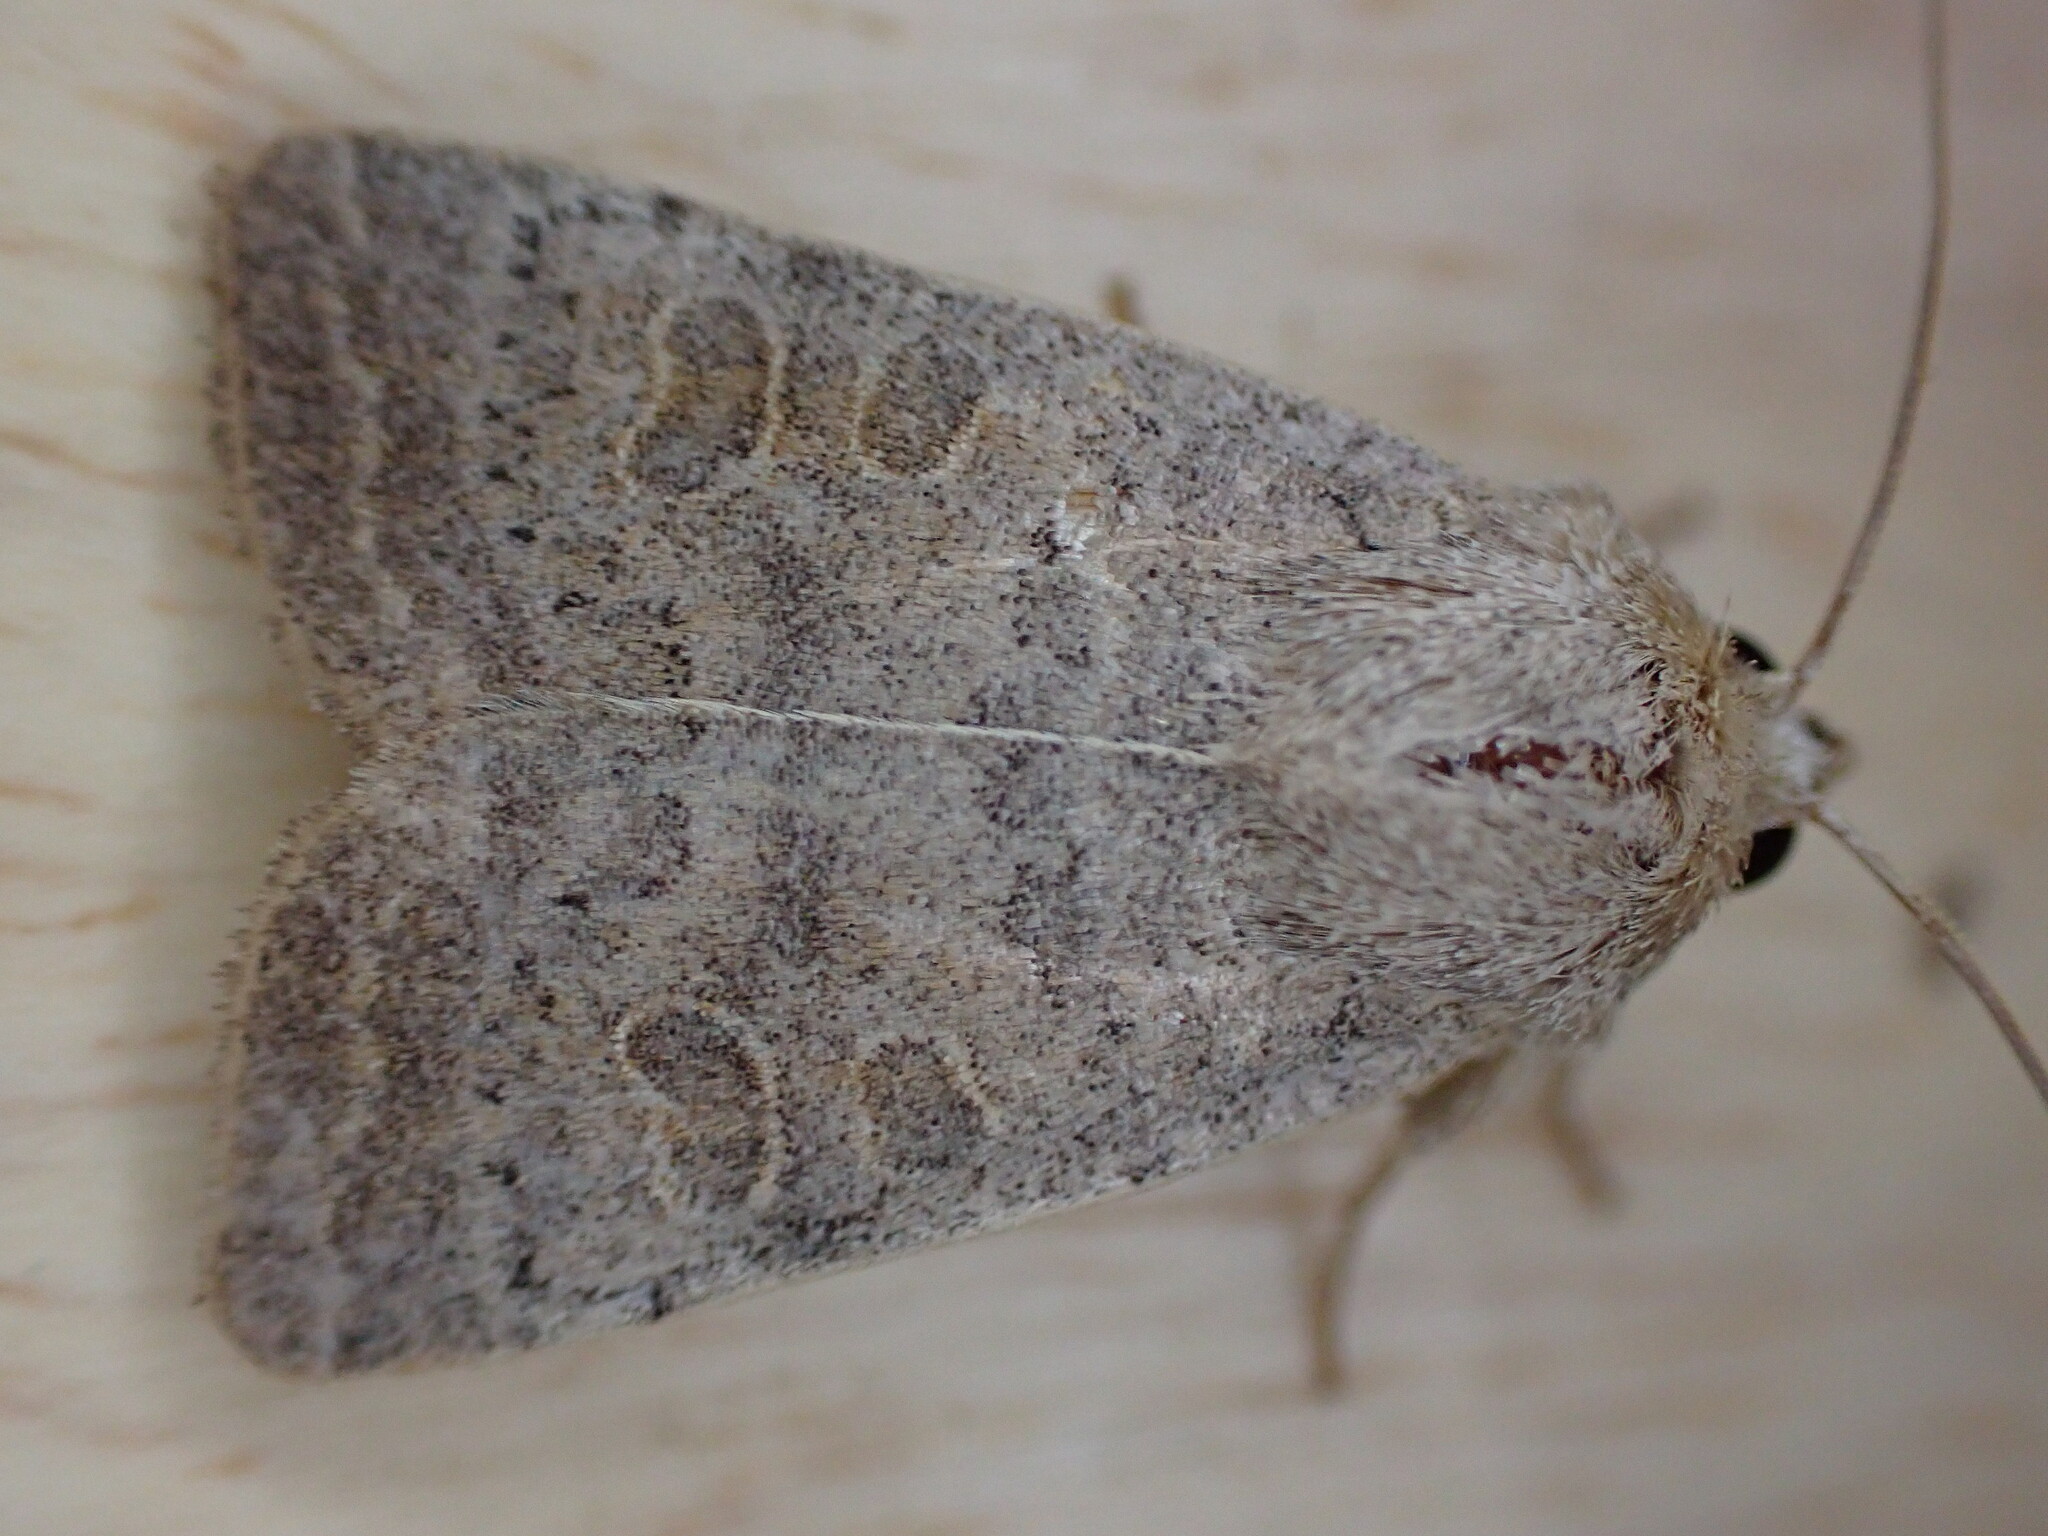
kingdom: Animalia
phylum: Arthropoda
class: Insecta
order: Lepidoptera
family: Noctuidae
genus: Hoplodrina
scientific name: Hoplodrina ambigua
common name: Vine's rustic
